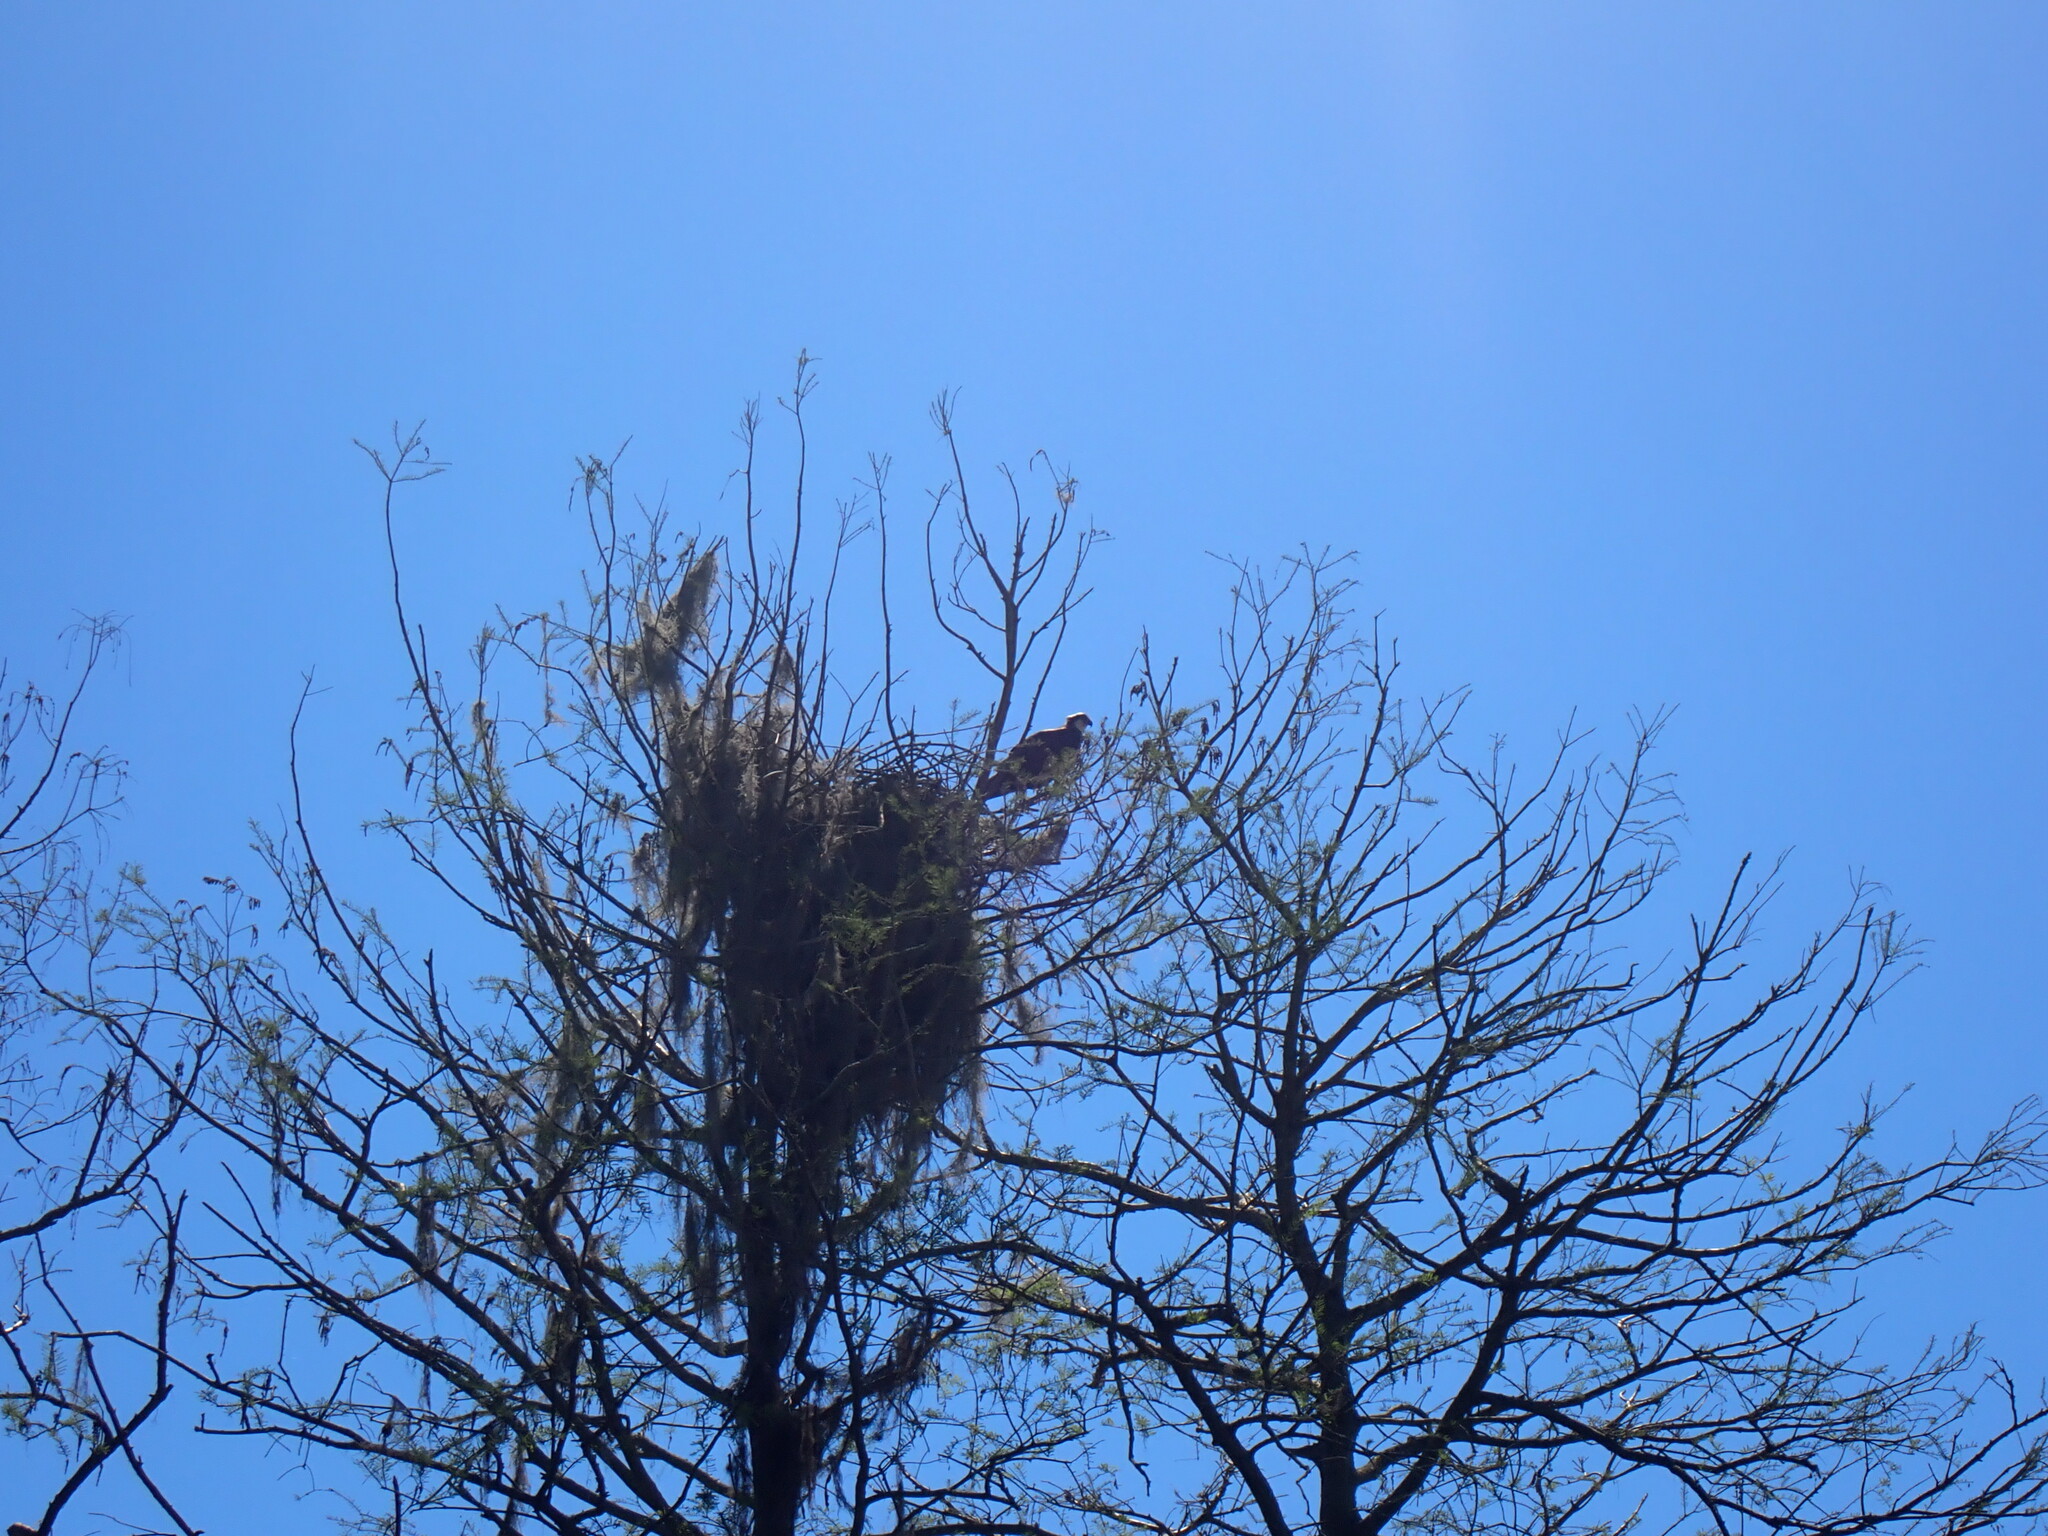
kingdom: Animalia
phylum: Chordata
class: Aves
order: Accipitriformes
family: Pandionidae
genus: Pandion
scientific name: Pandion haliaetus
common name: Osprey
